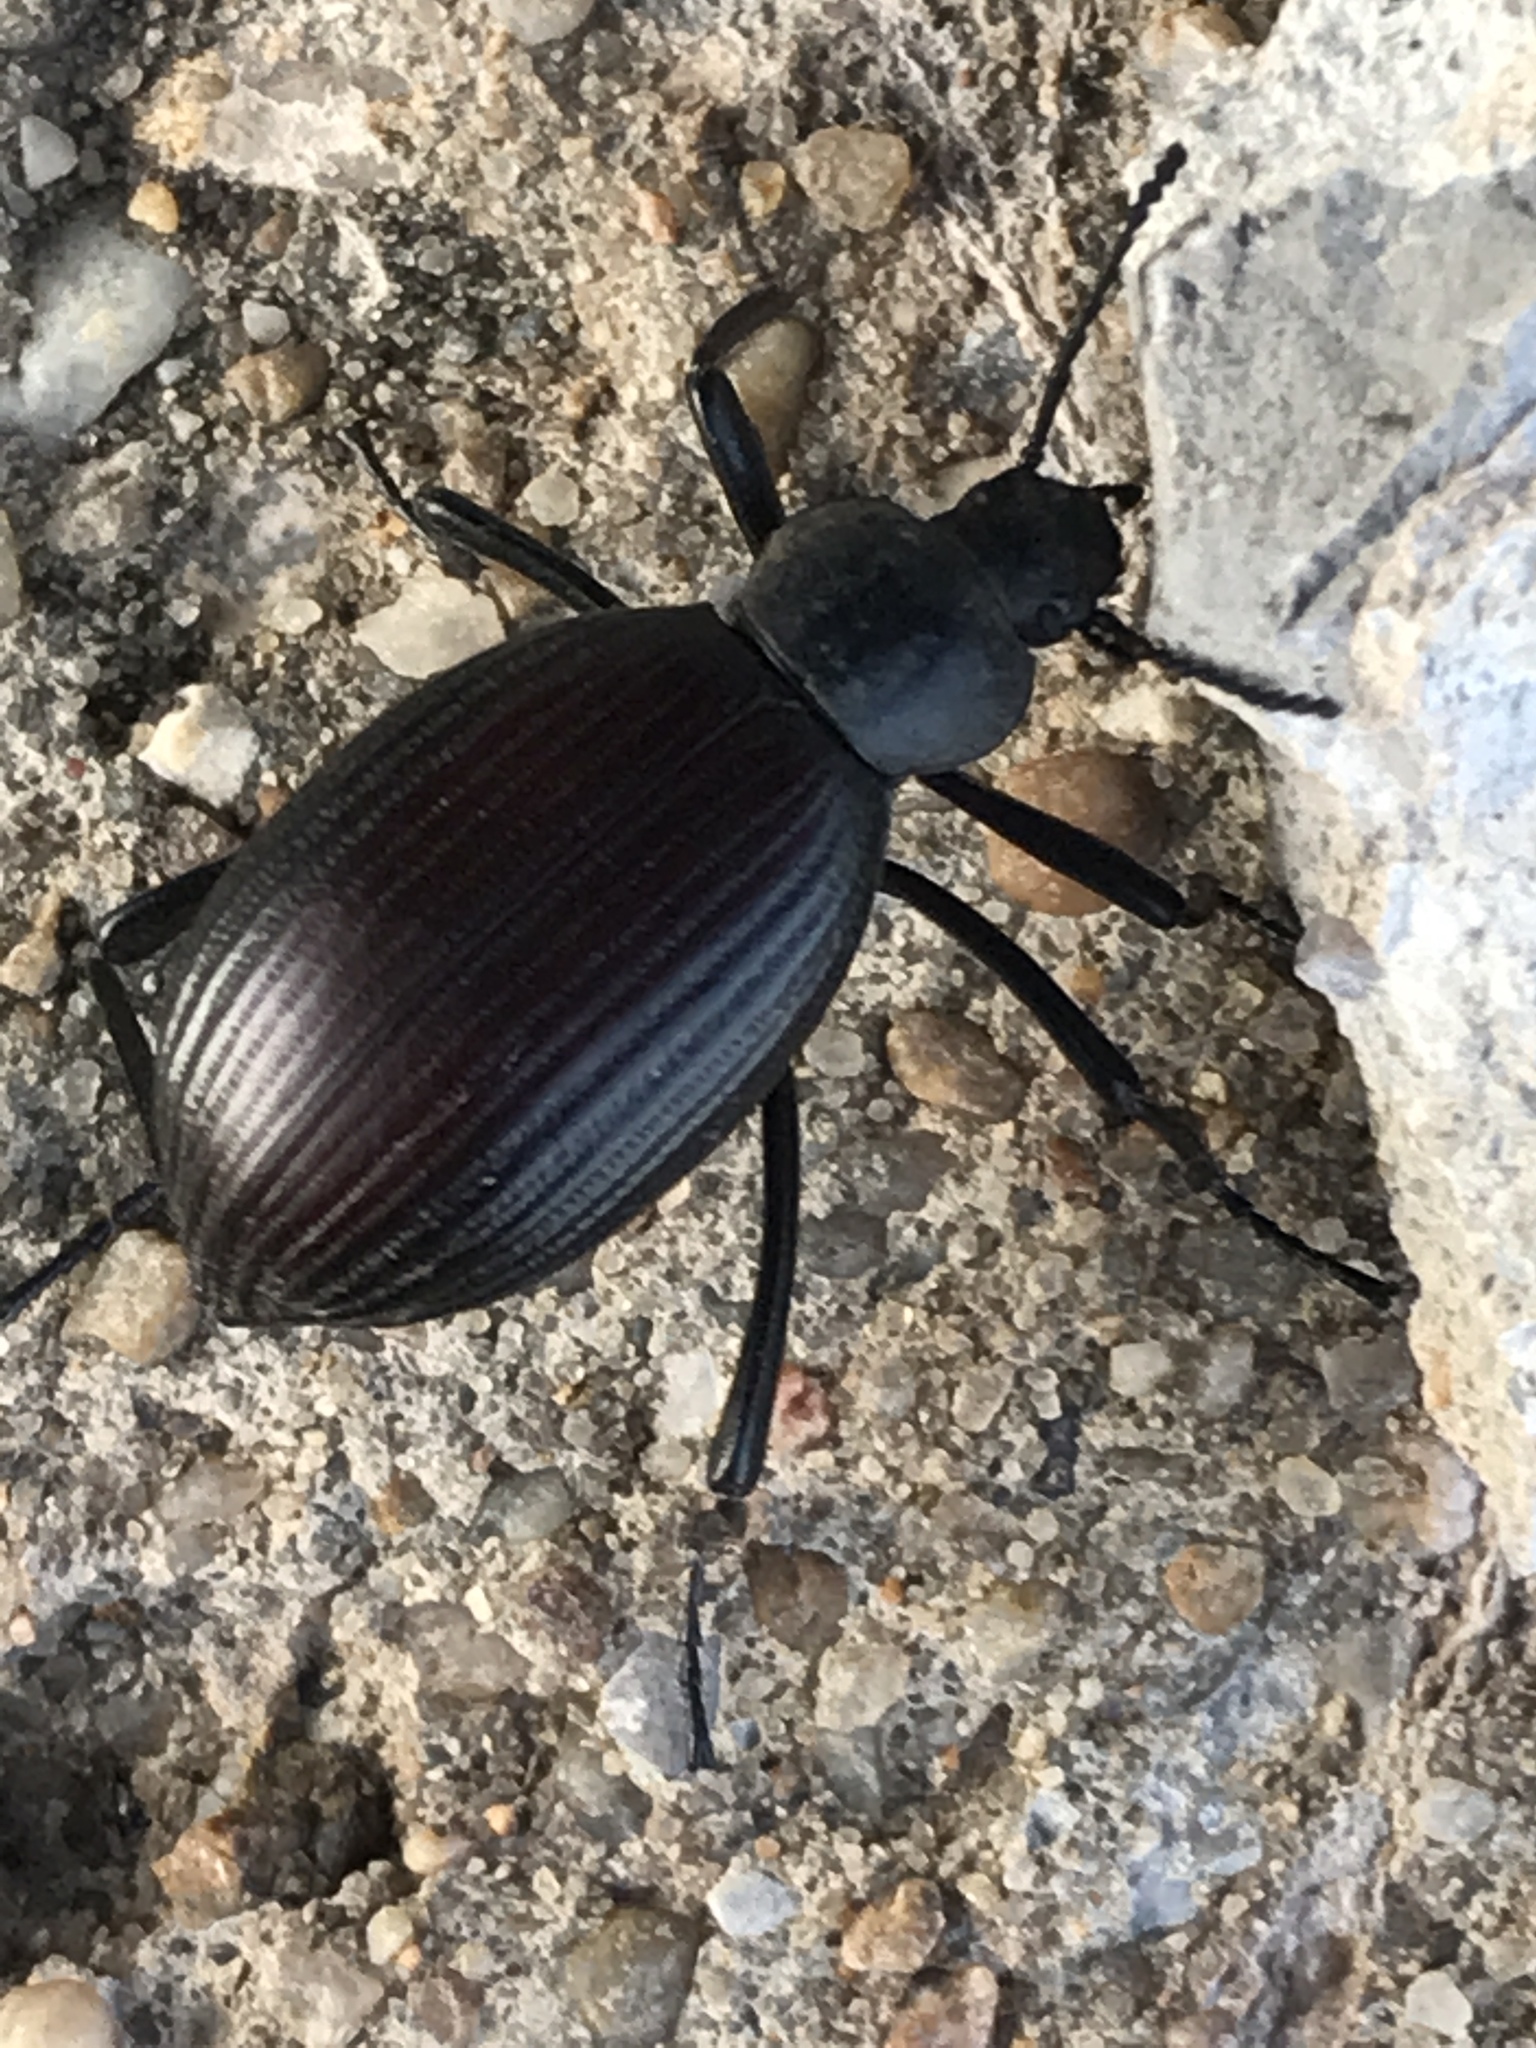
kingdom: Animalia
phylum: Arthropoda
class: Insecta
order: Coleoptera
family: Tenebrionidae
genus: Eleodes
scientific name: Eleodes hispilabris
